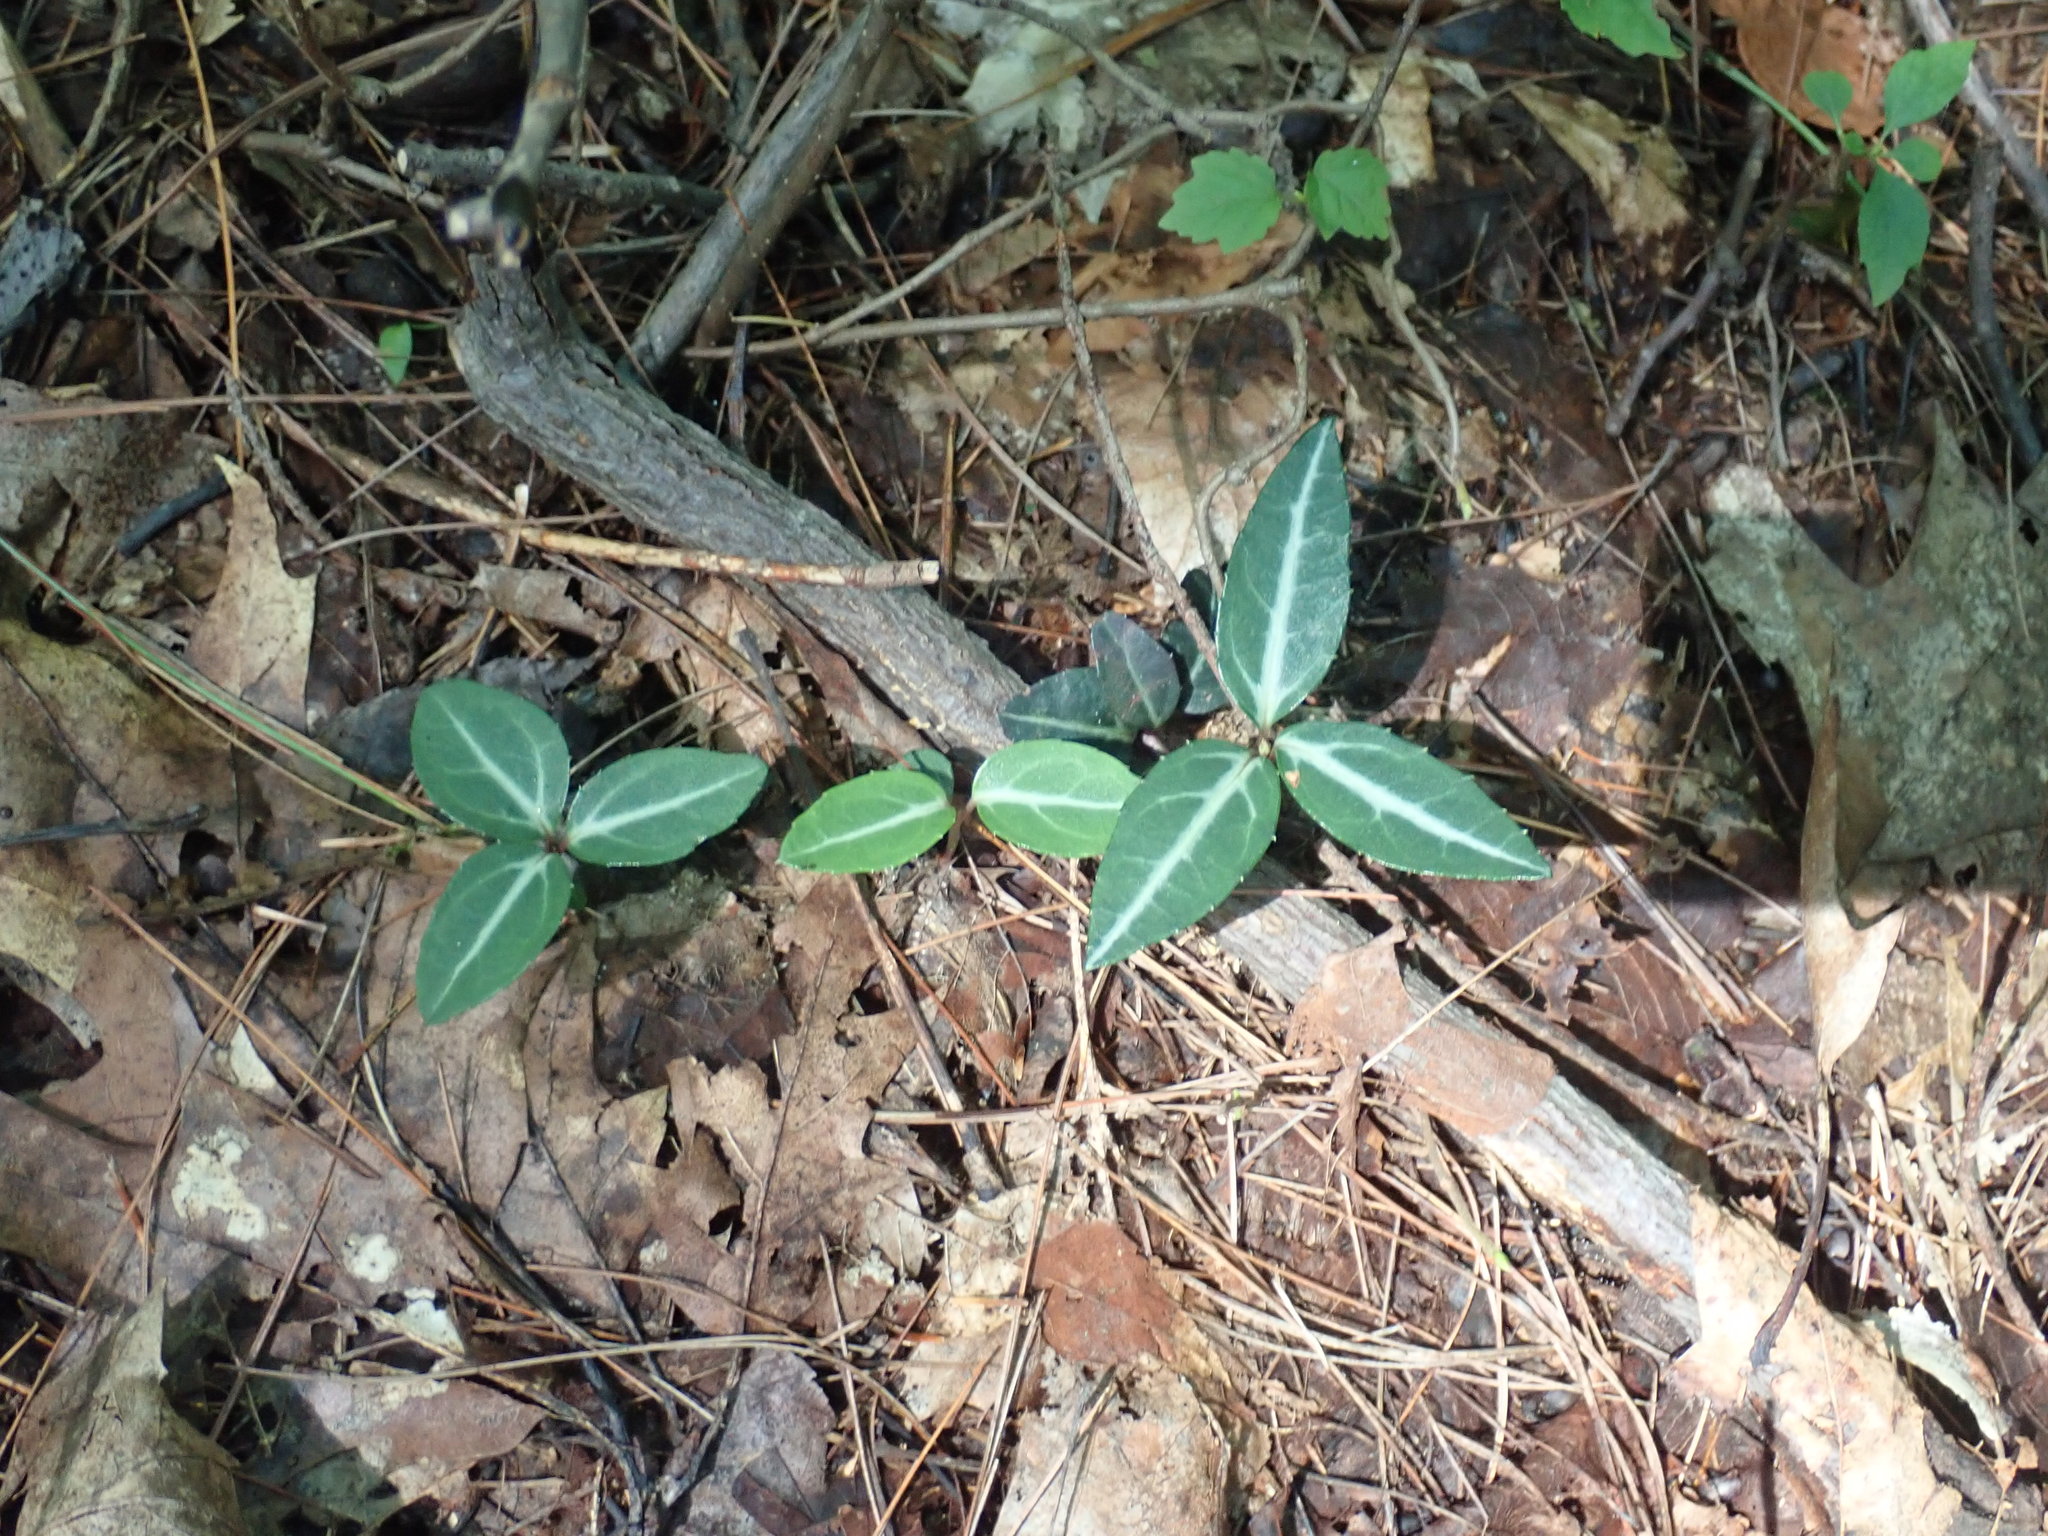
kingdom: Plantae
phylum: Tracheophyta
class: Magnoliopsida
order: Ericales
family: Ericaceae
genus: Chimaphila
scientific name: Chimaphila maculata
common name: Spotted pipsissewa
